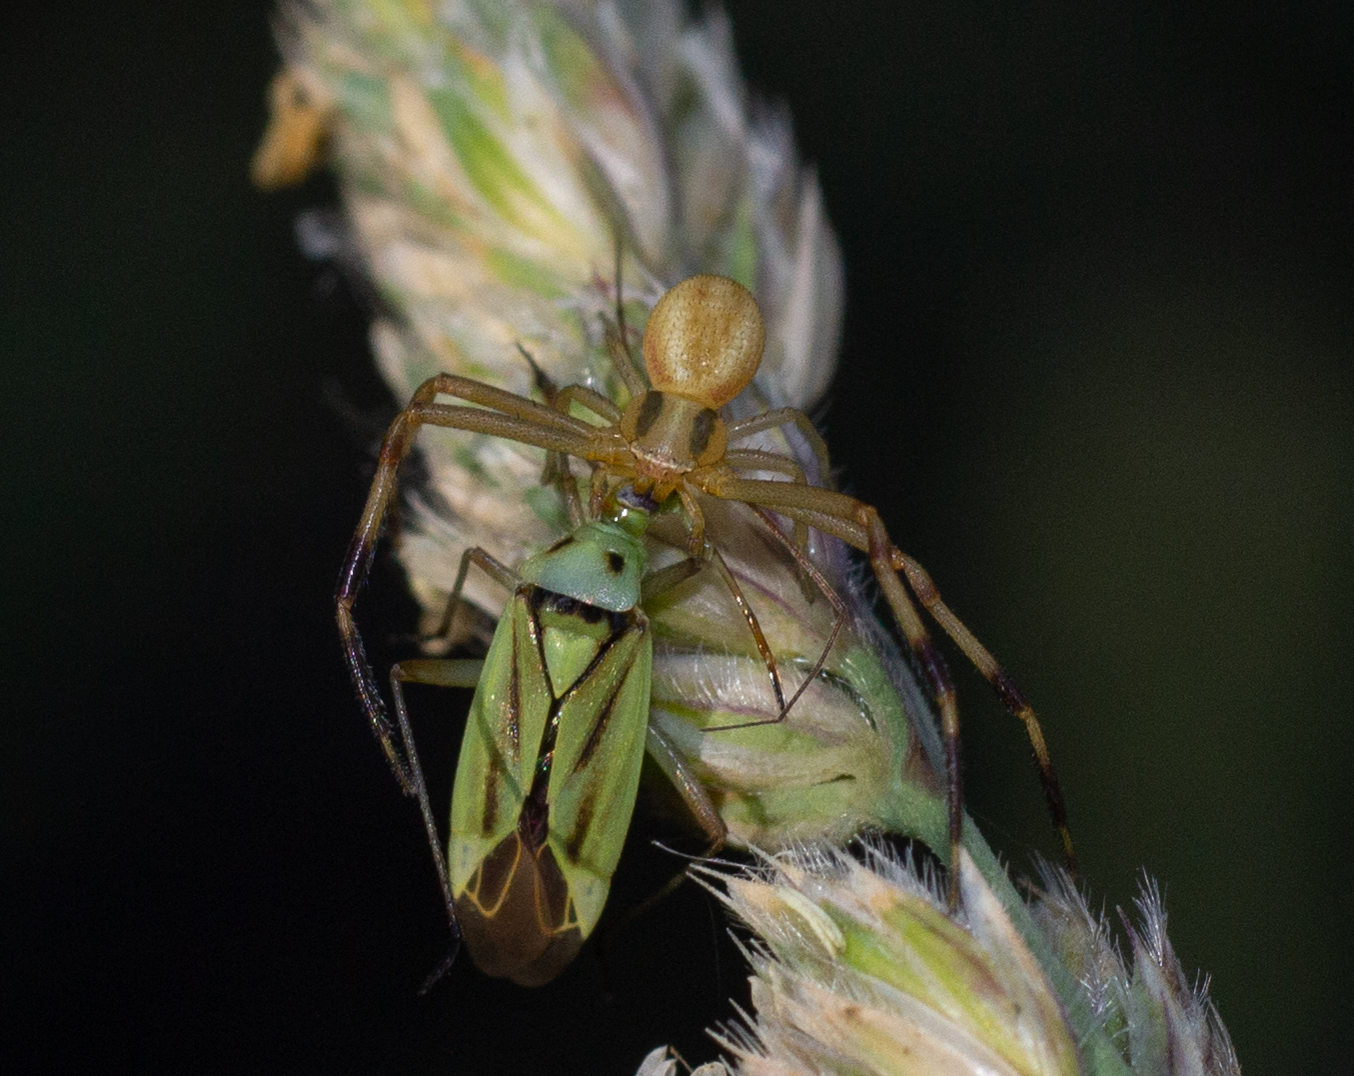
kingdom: Animalia
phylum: Arthropoda
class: Arachnida
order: Araneae
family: Thomisidae
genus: Runcinia
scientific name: Runcinia grammica
